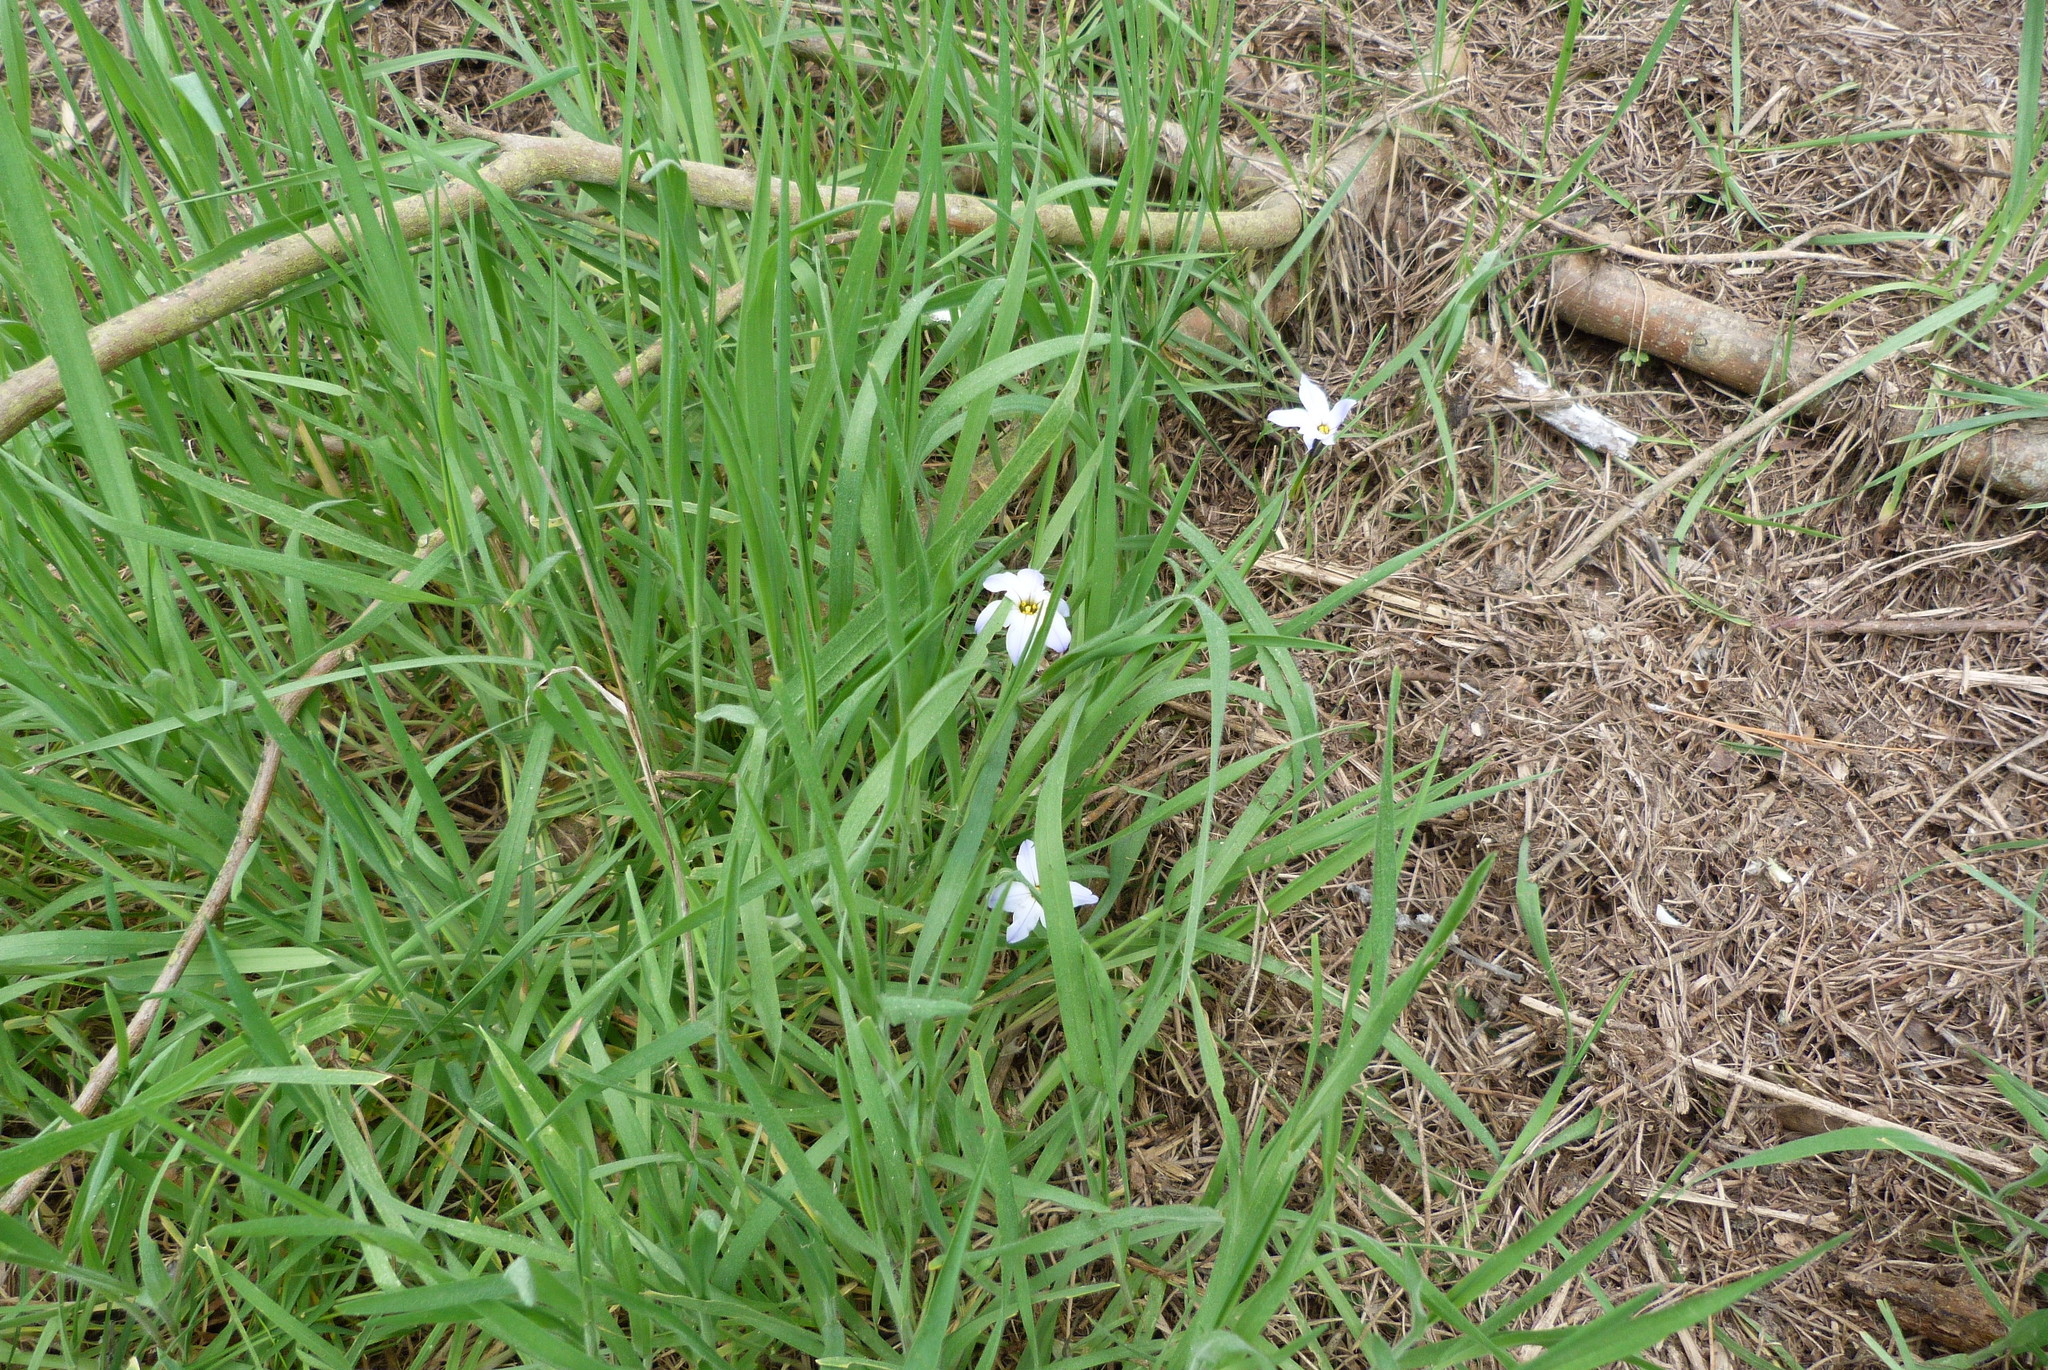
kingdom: Plantae
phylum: Tracheophyta
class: Liliopsida
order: Asparagales
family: Amaryllidaceae
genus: Ipheion
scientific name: Ipheion uniflorum
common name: Spring starflower
